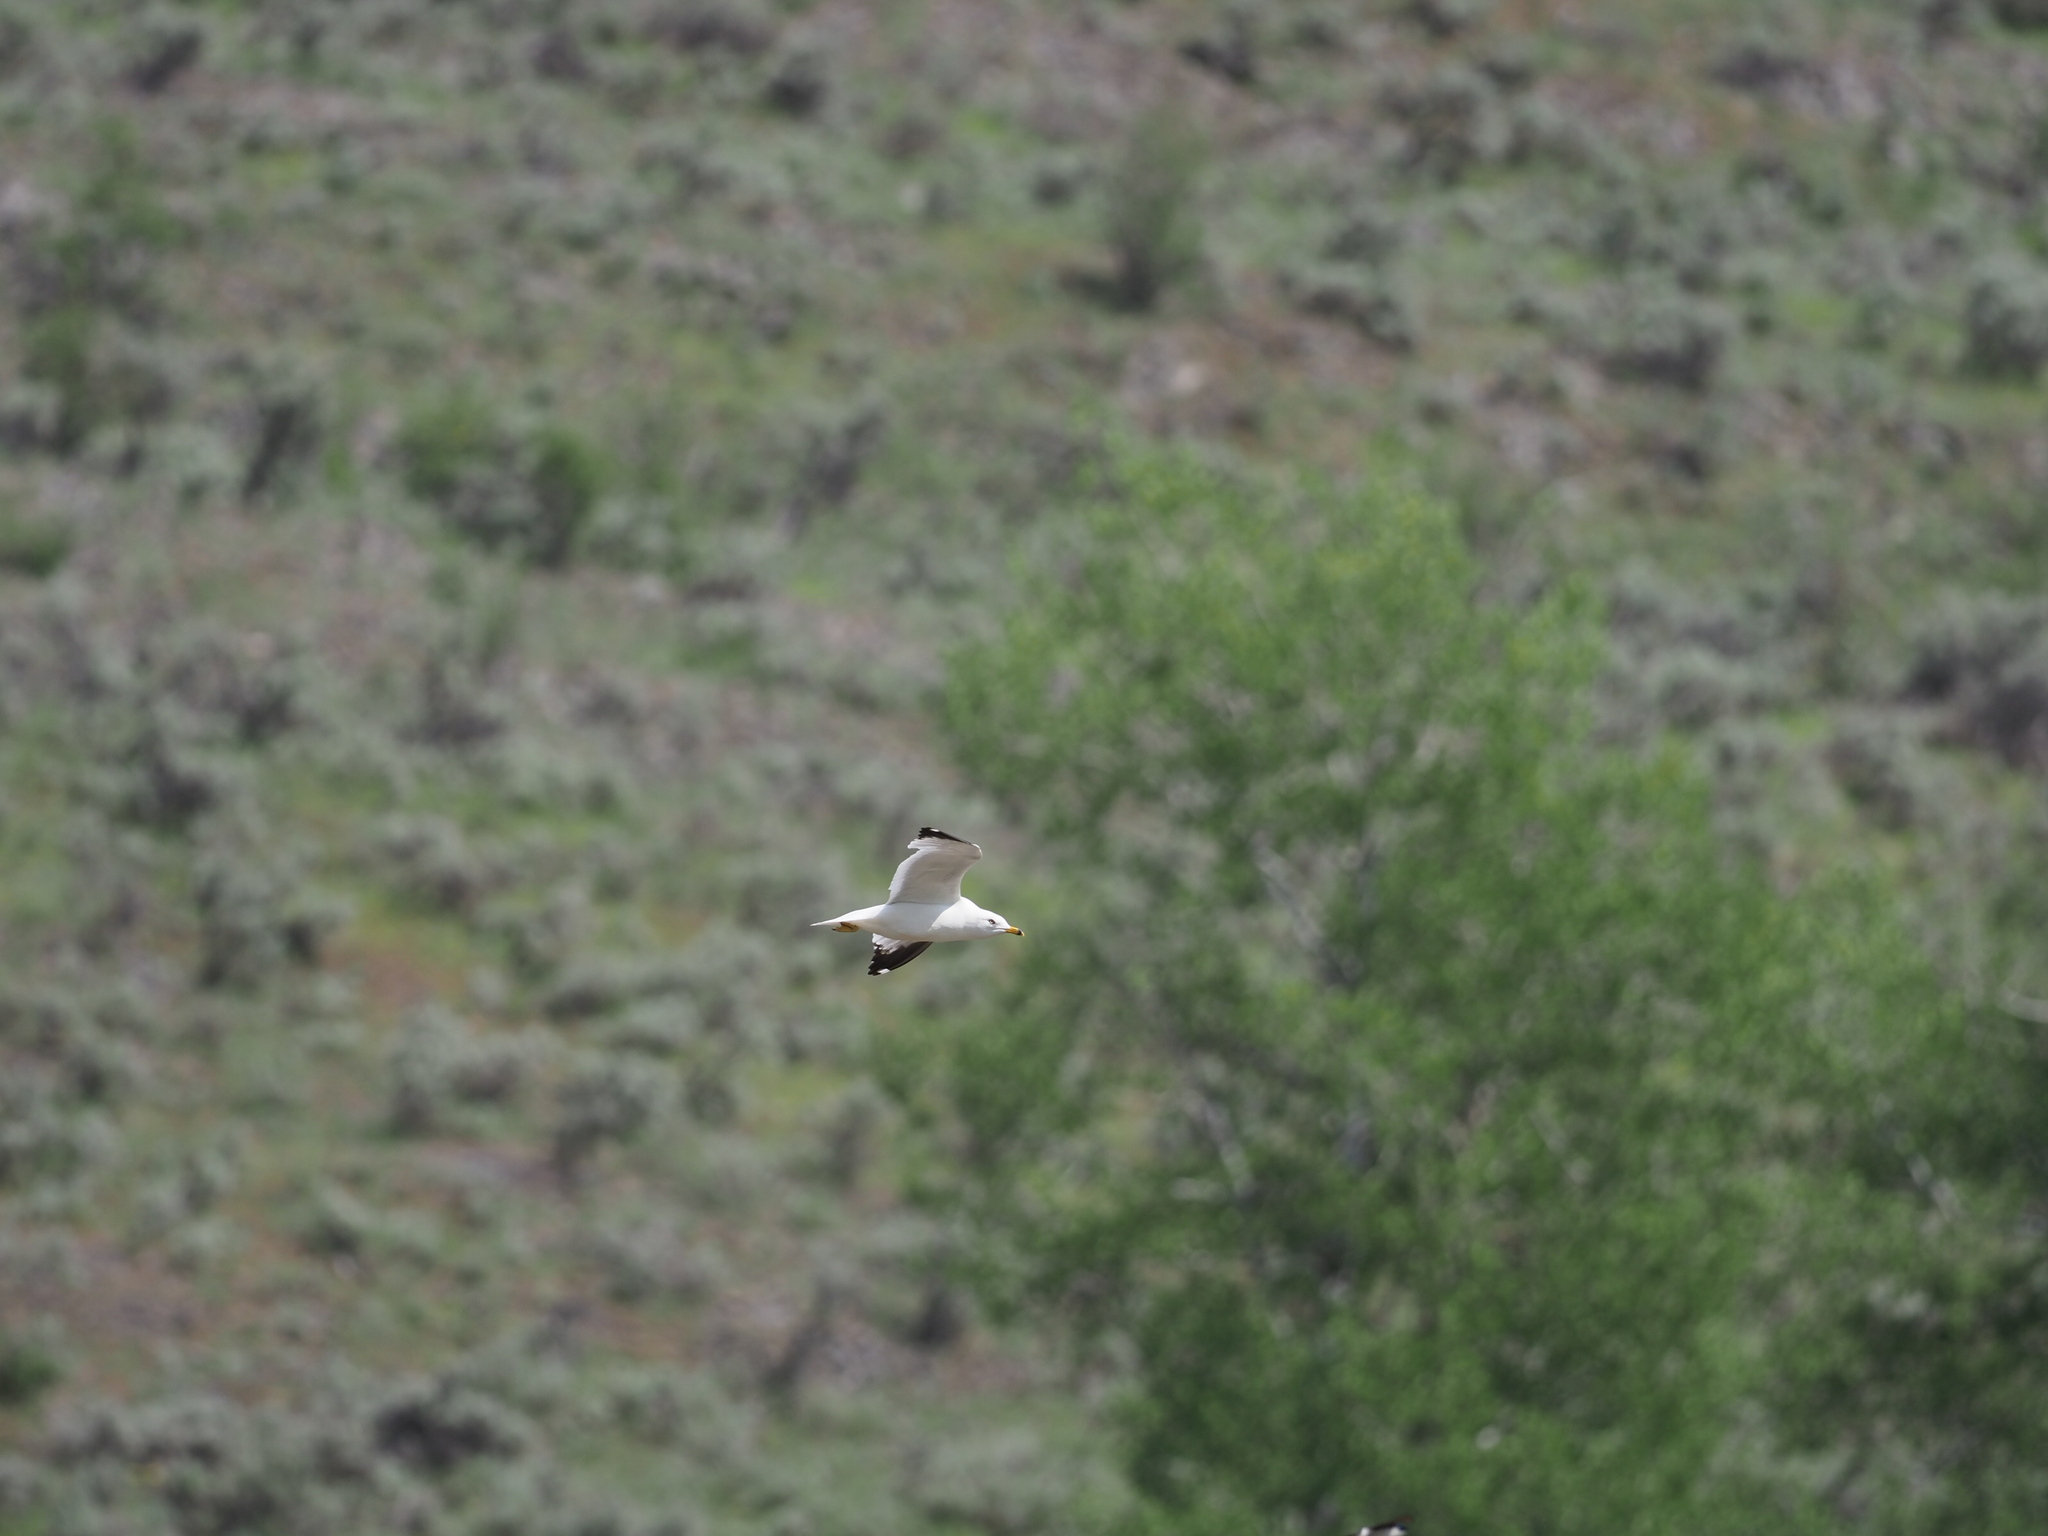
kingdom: Animalia
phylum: Chordata
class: Aves
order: Charadriiformes
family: Laridae
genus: Larus
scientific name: Larus delawarensis
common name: Ring-billed gull
